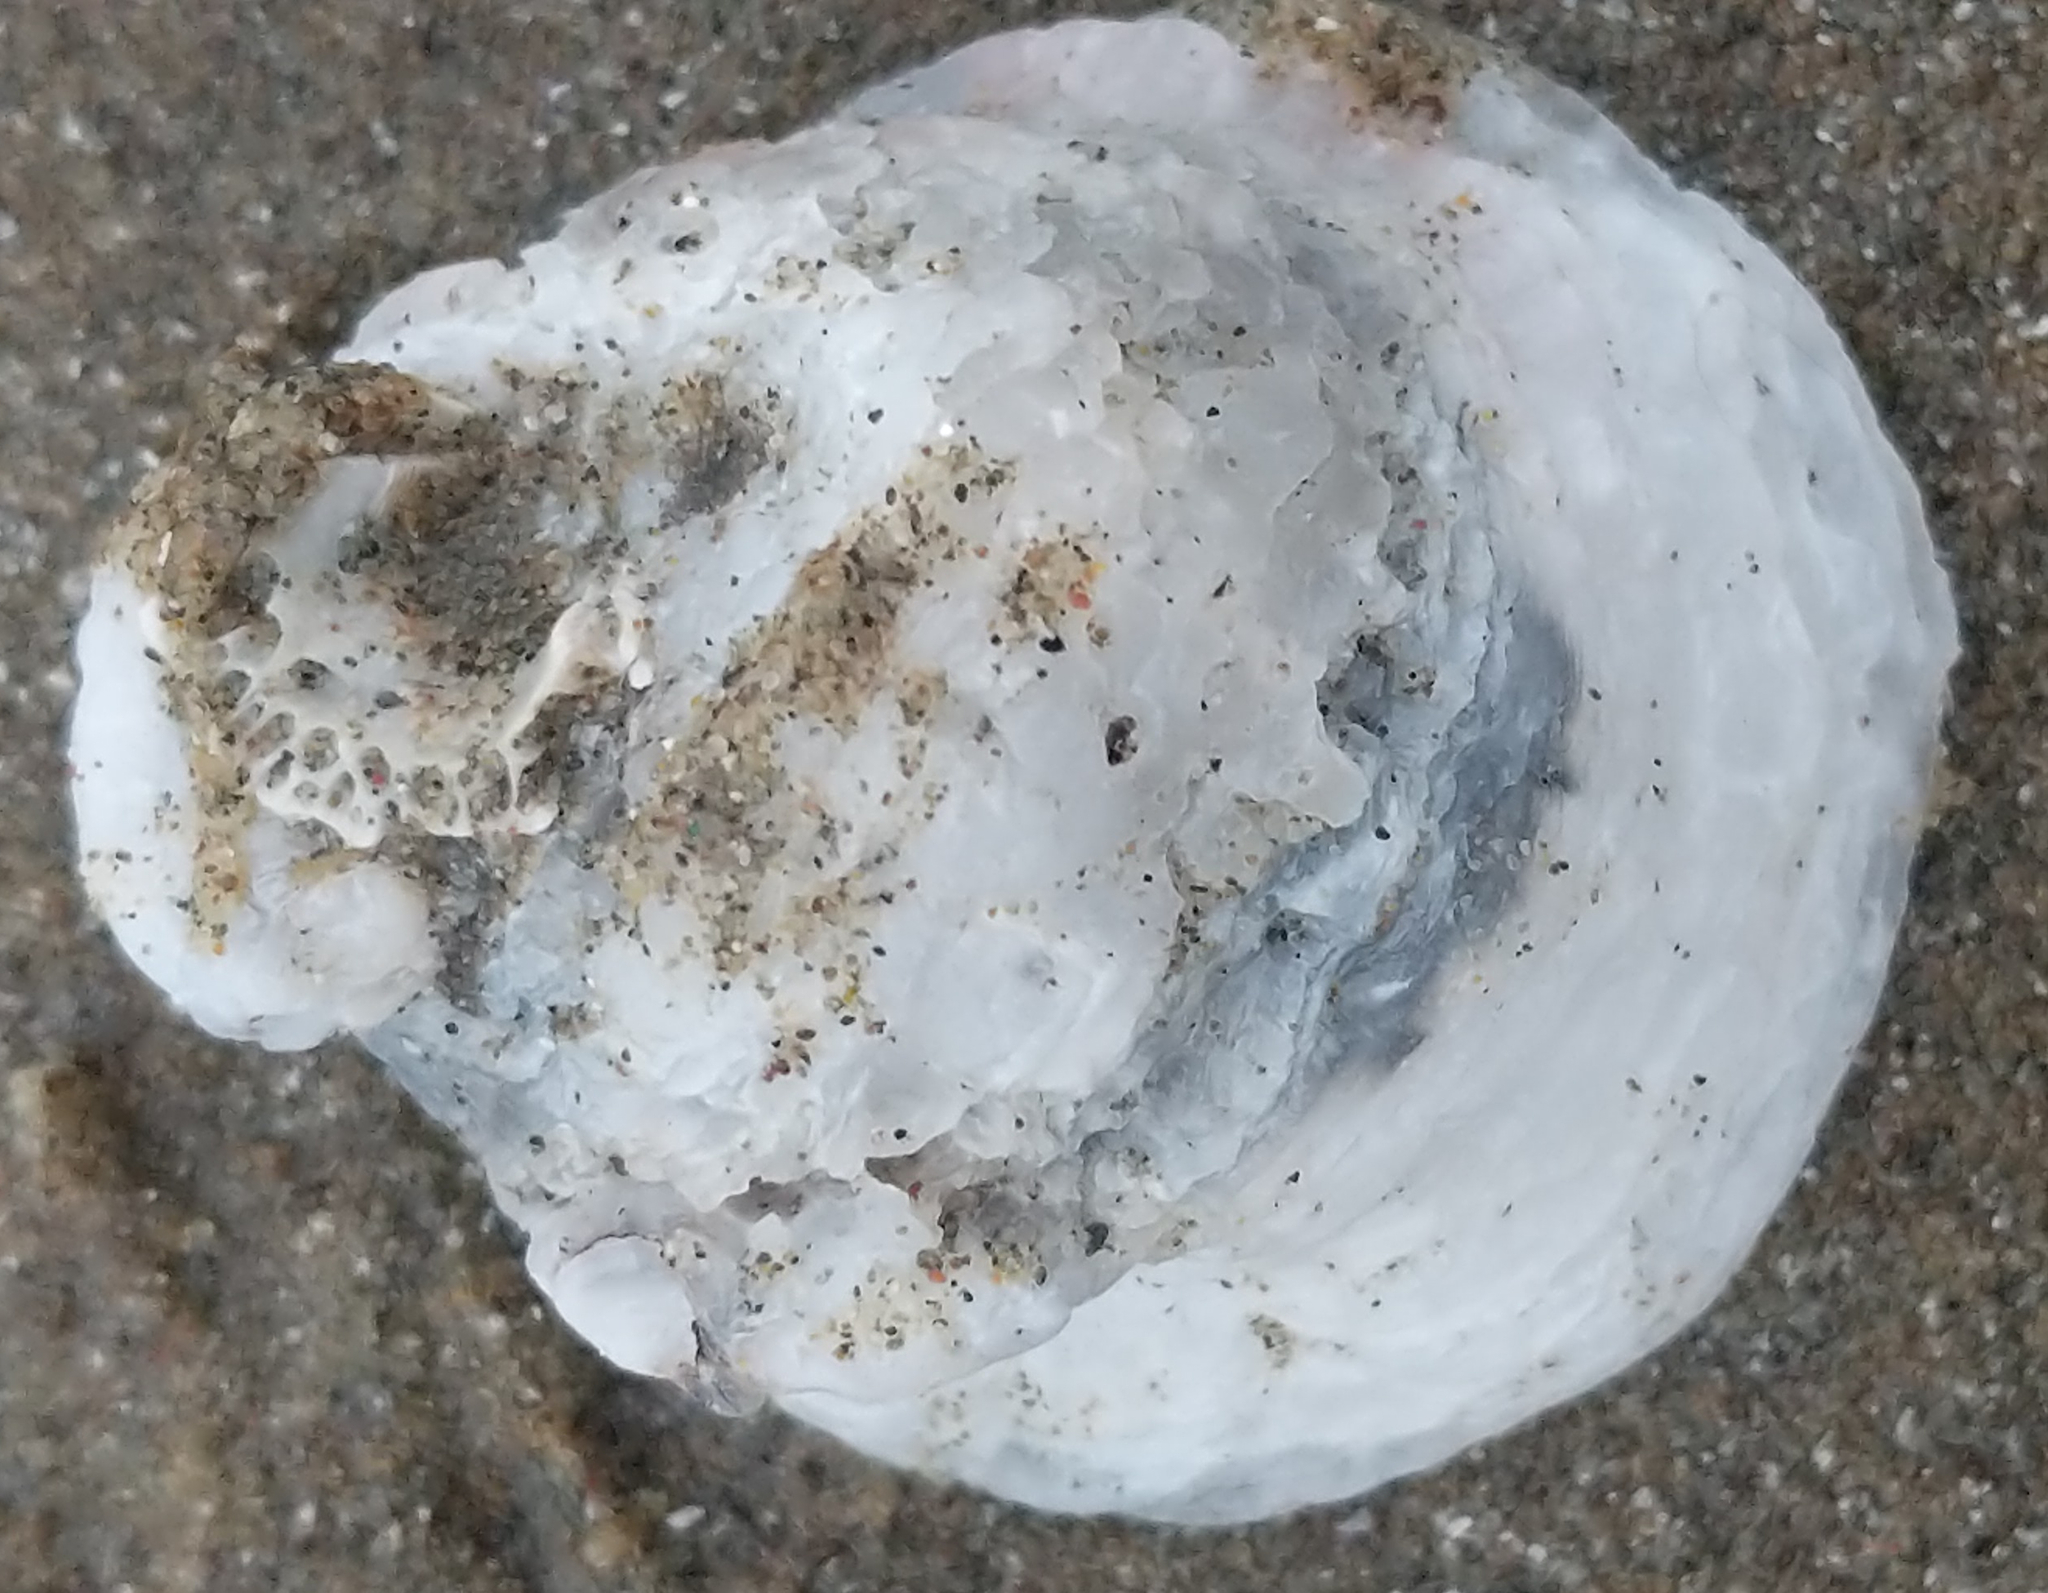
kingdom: Animalia
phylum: Mollusca
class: Bivalvia
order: Venerida
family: Chamidae
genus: Chama
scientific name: Chama arcana
